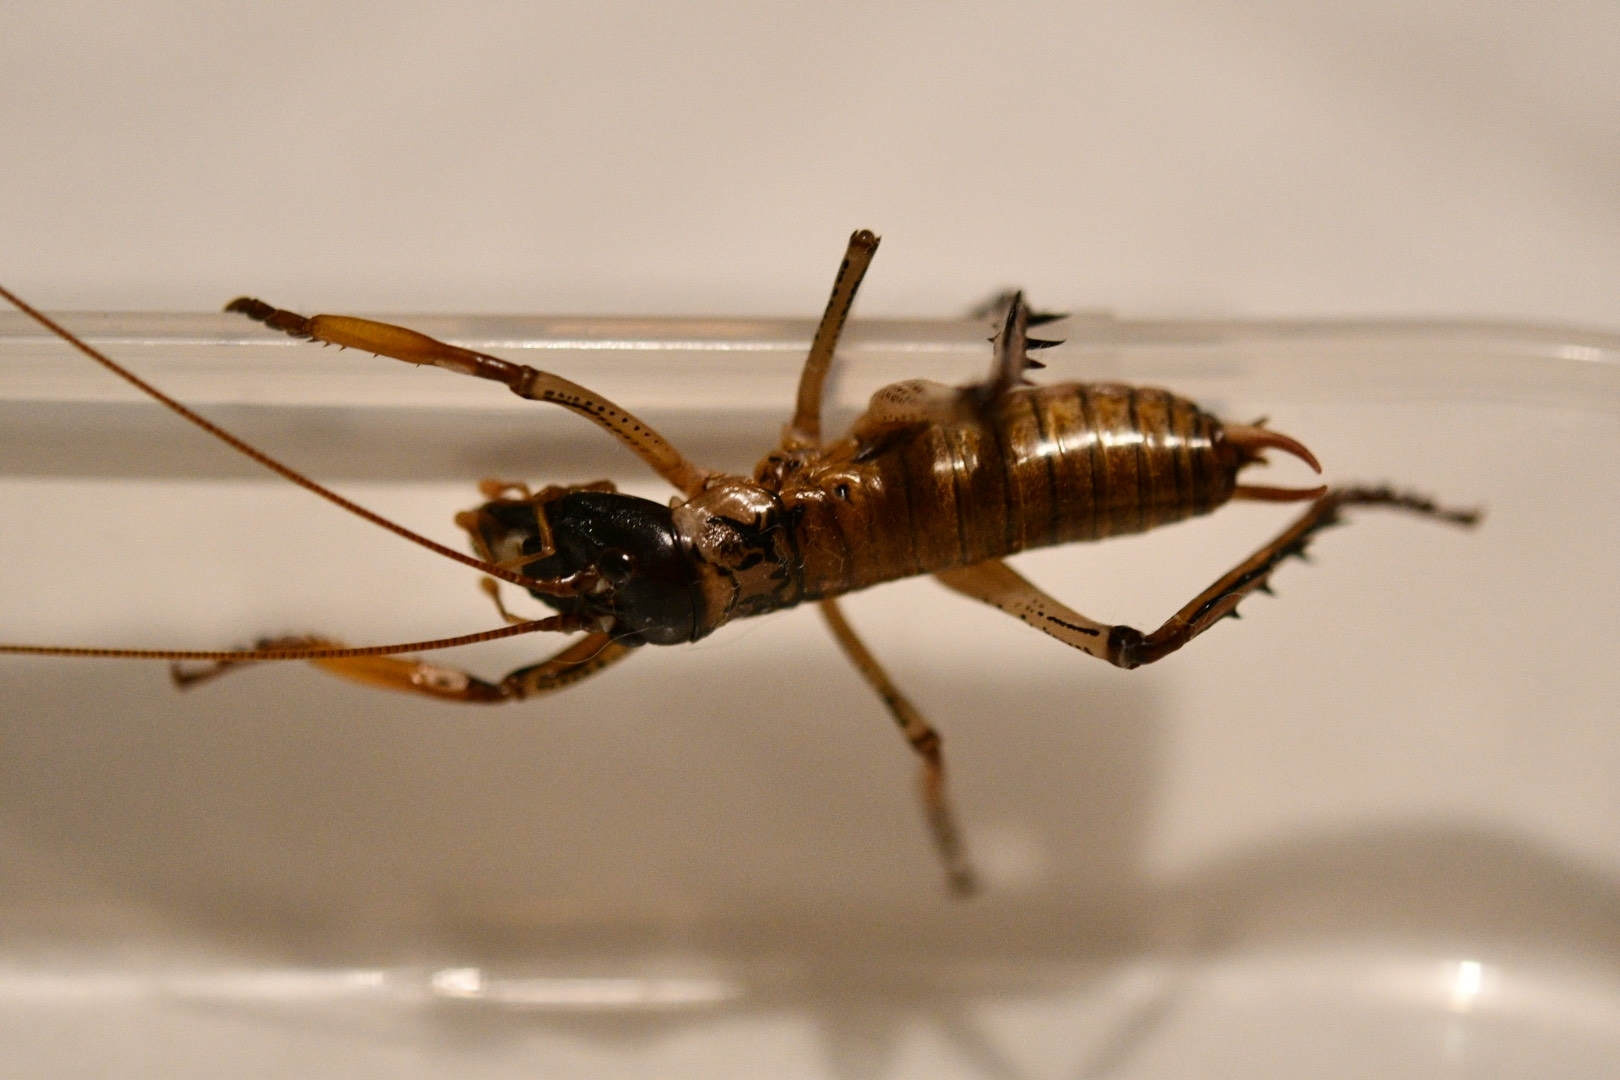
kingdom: Animalia
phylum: Arthropoda
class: Insecta
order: Orthoptera
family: Anostostomatidae
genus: Hemideina
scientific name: Hemideina thoracica
